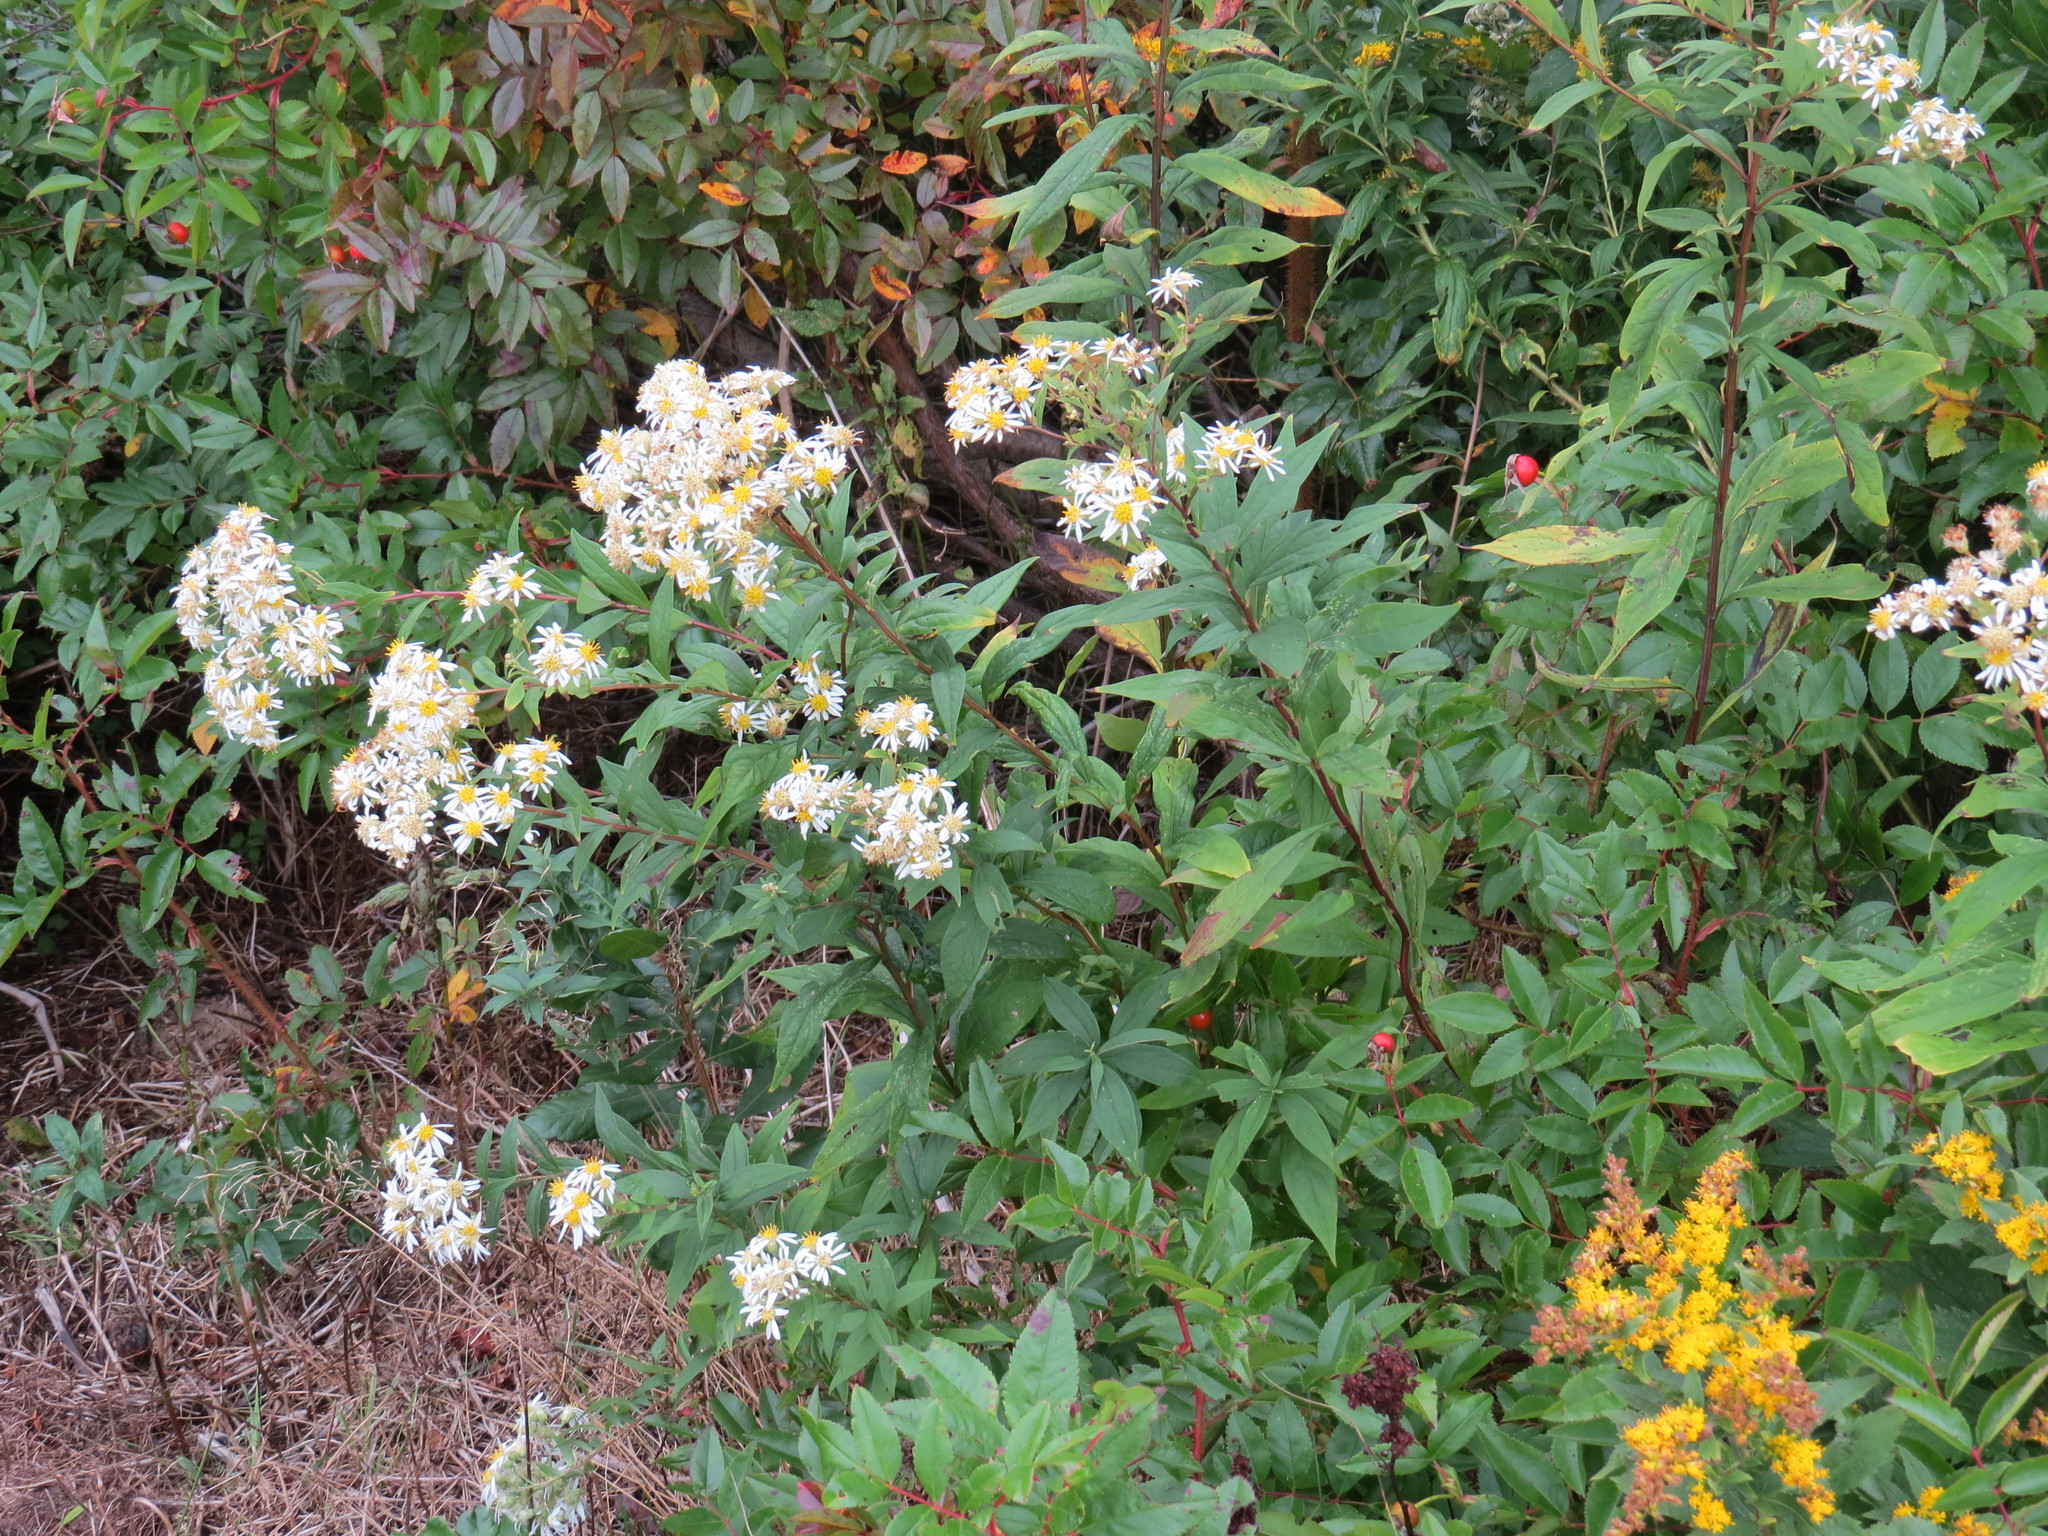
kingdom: Plantae
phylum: Tracheophyta
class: Magnoliopsida
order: Asterales
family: Asteraceae
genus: Doellingeria
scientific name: Doellingeria umbellata
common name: Flat-top white aster
